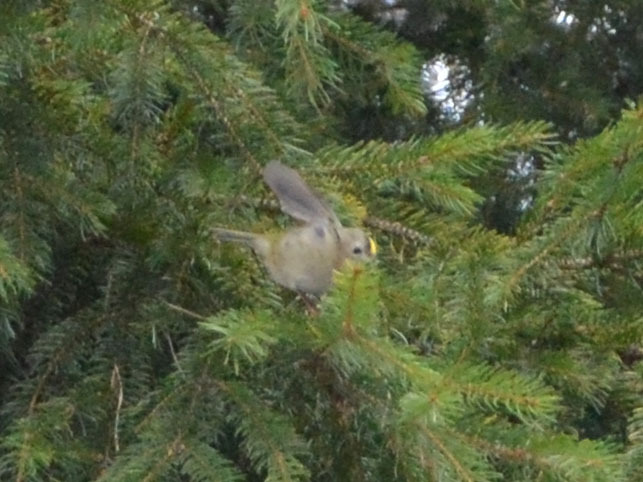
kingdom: Animalia
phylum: Chordata
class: Aves
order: Passeriformes
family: Regulidae
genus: Regulus
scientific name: Regulus regulus
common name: Goldcrest
